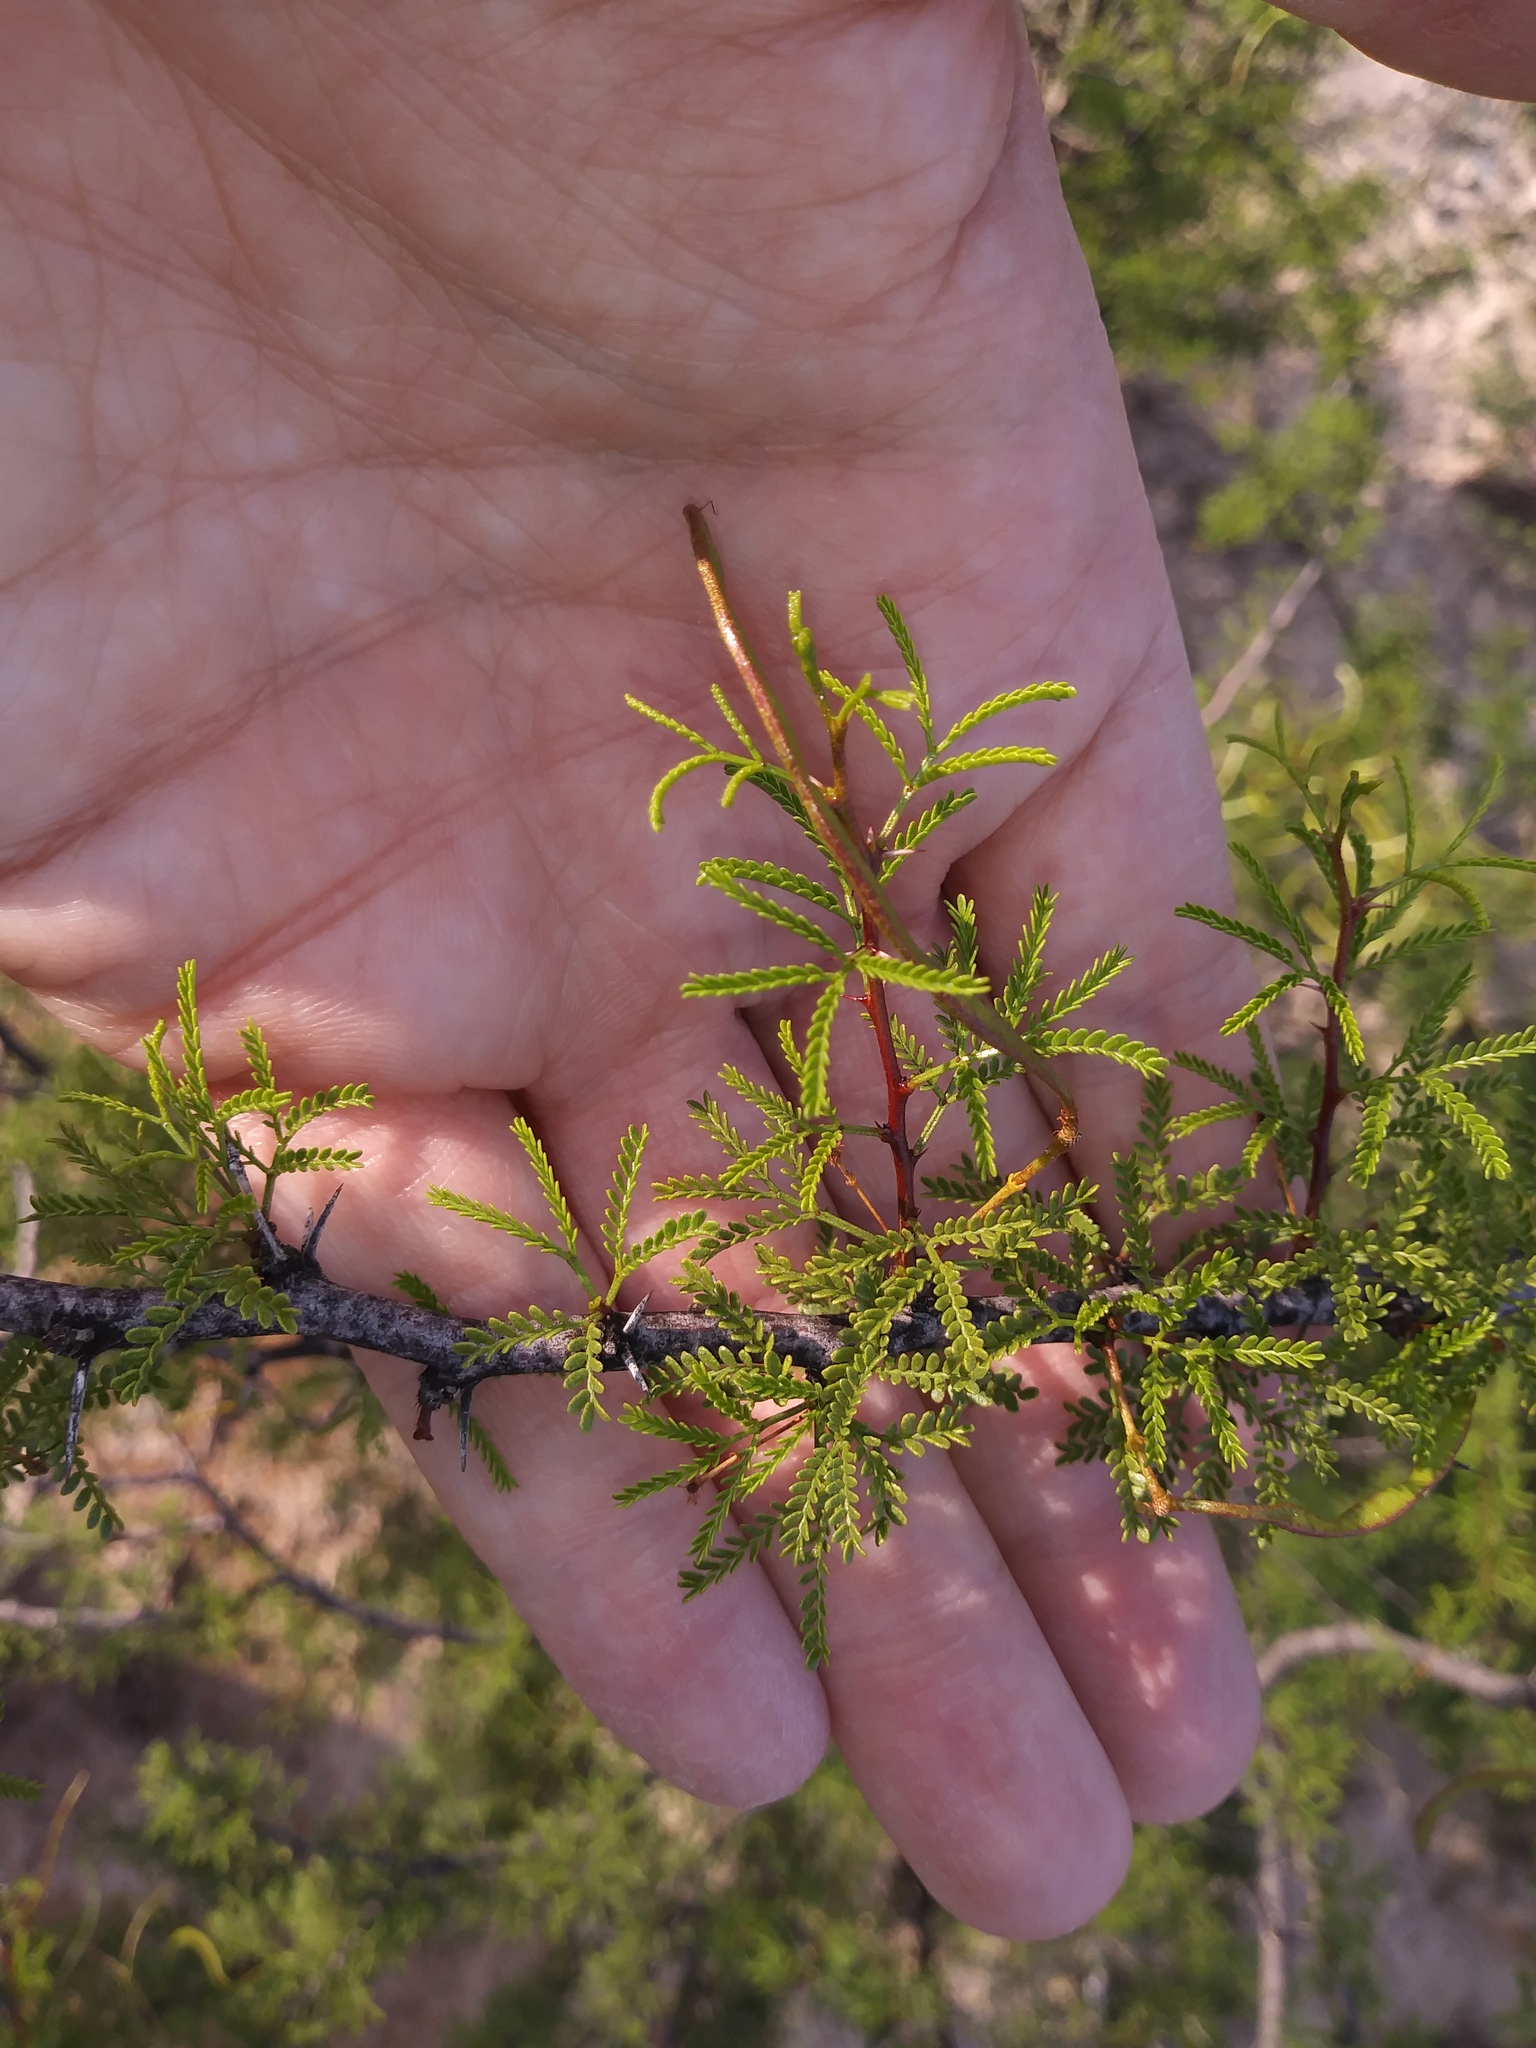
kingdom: Plantae
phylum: Tracheophyta
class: Magnoliopsida
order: Fabales
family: Fabaceae
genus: Vachellia
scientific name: Vachellia vernicosa
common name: Viscid acacia
